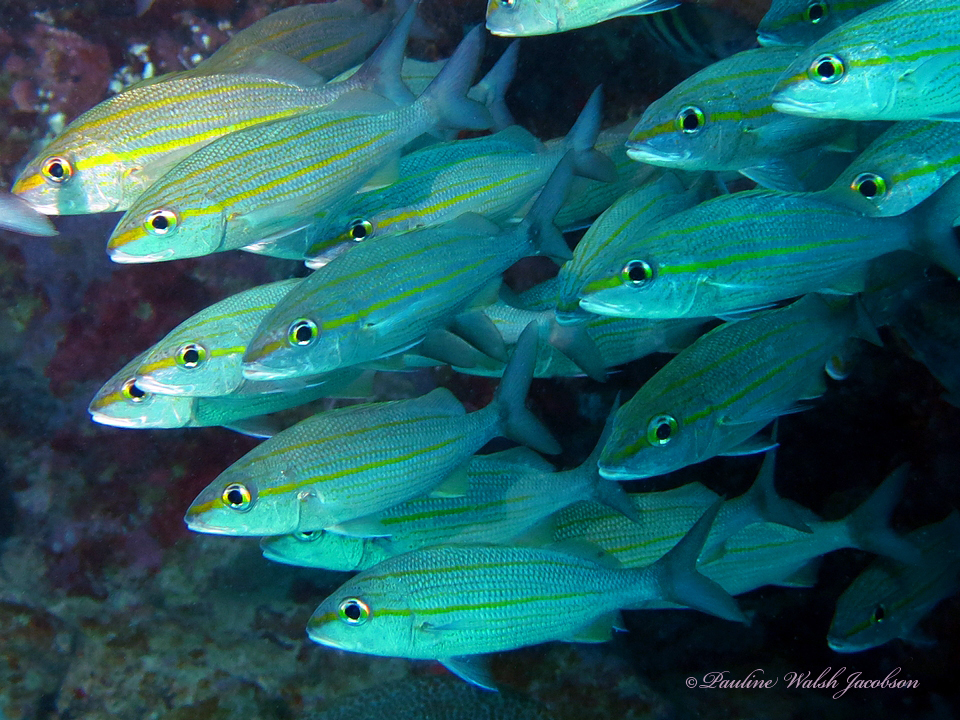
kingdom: Animalia
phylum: Chordata
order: Perciformes
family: Haemulidae
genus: Haemulon
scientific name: Haemulon aurolineatum
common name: Tomtate
